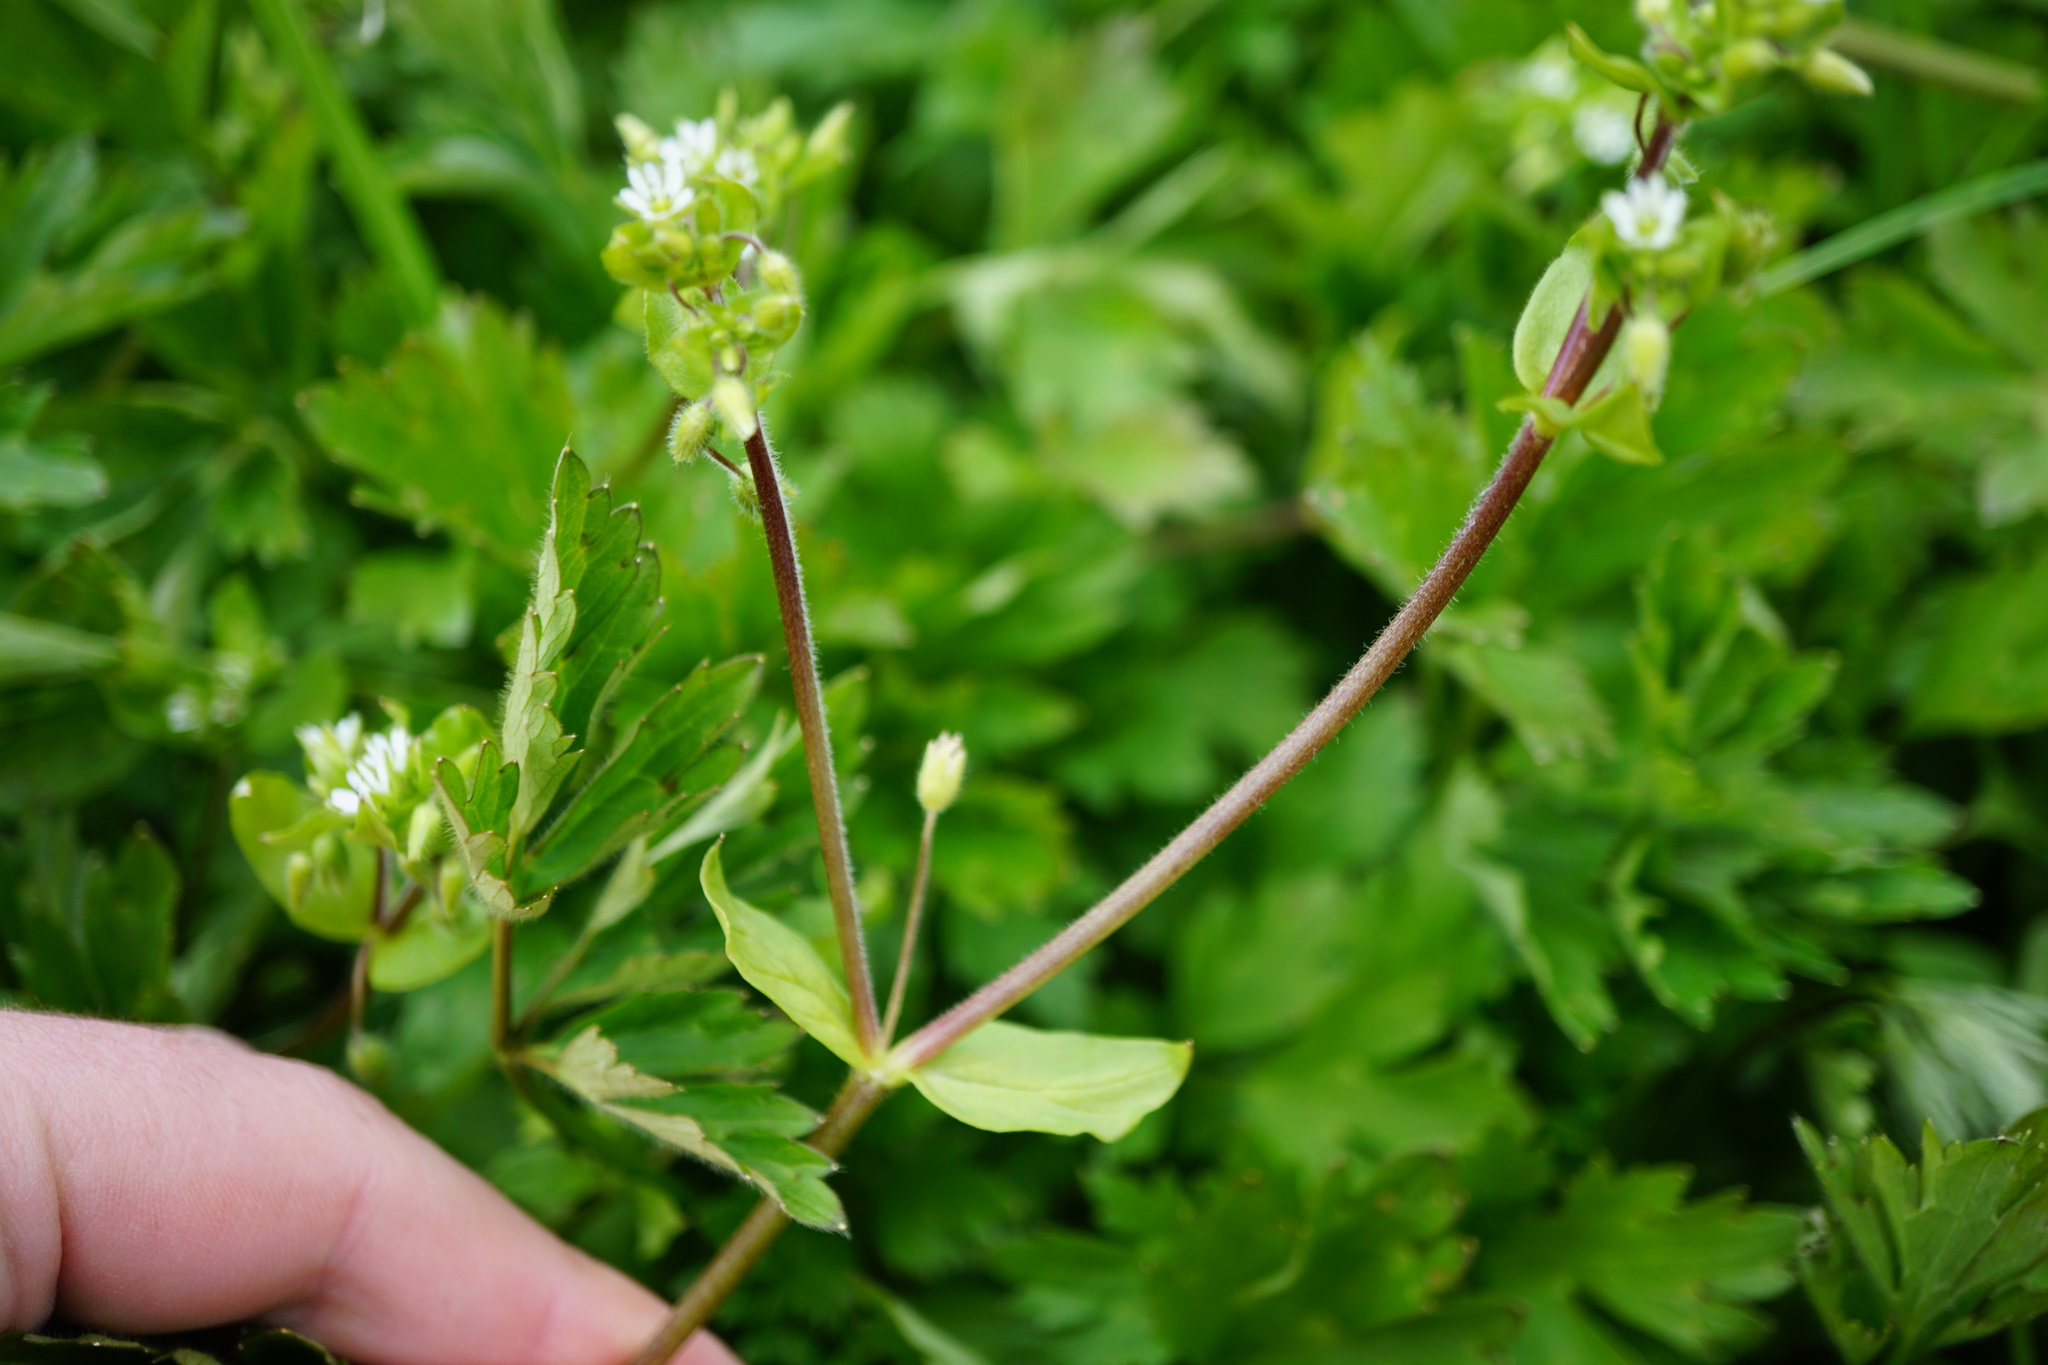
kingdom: Plantae
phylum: Tracheophyta
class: Magnoliopsida
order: Caryophyllales
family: Caryophyllaceae
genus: Stellaria
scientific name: Stellaria media
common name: Common chickweed
